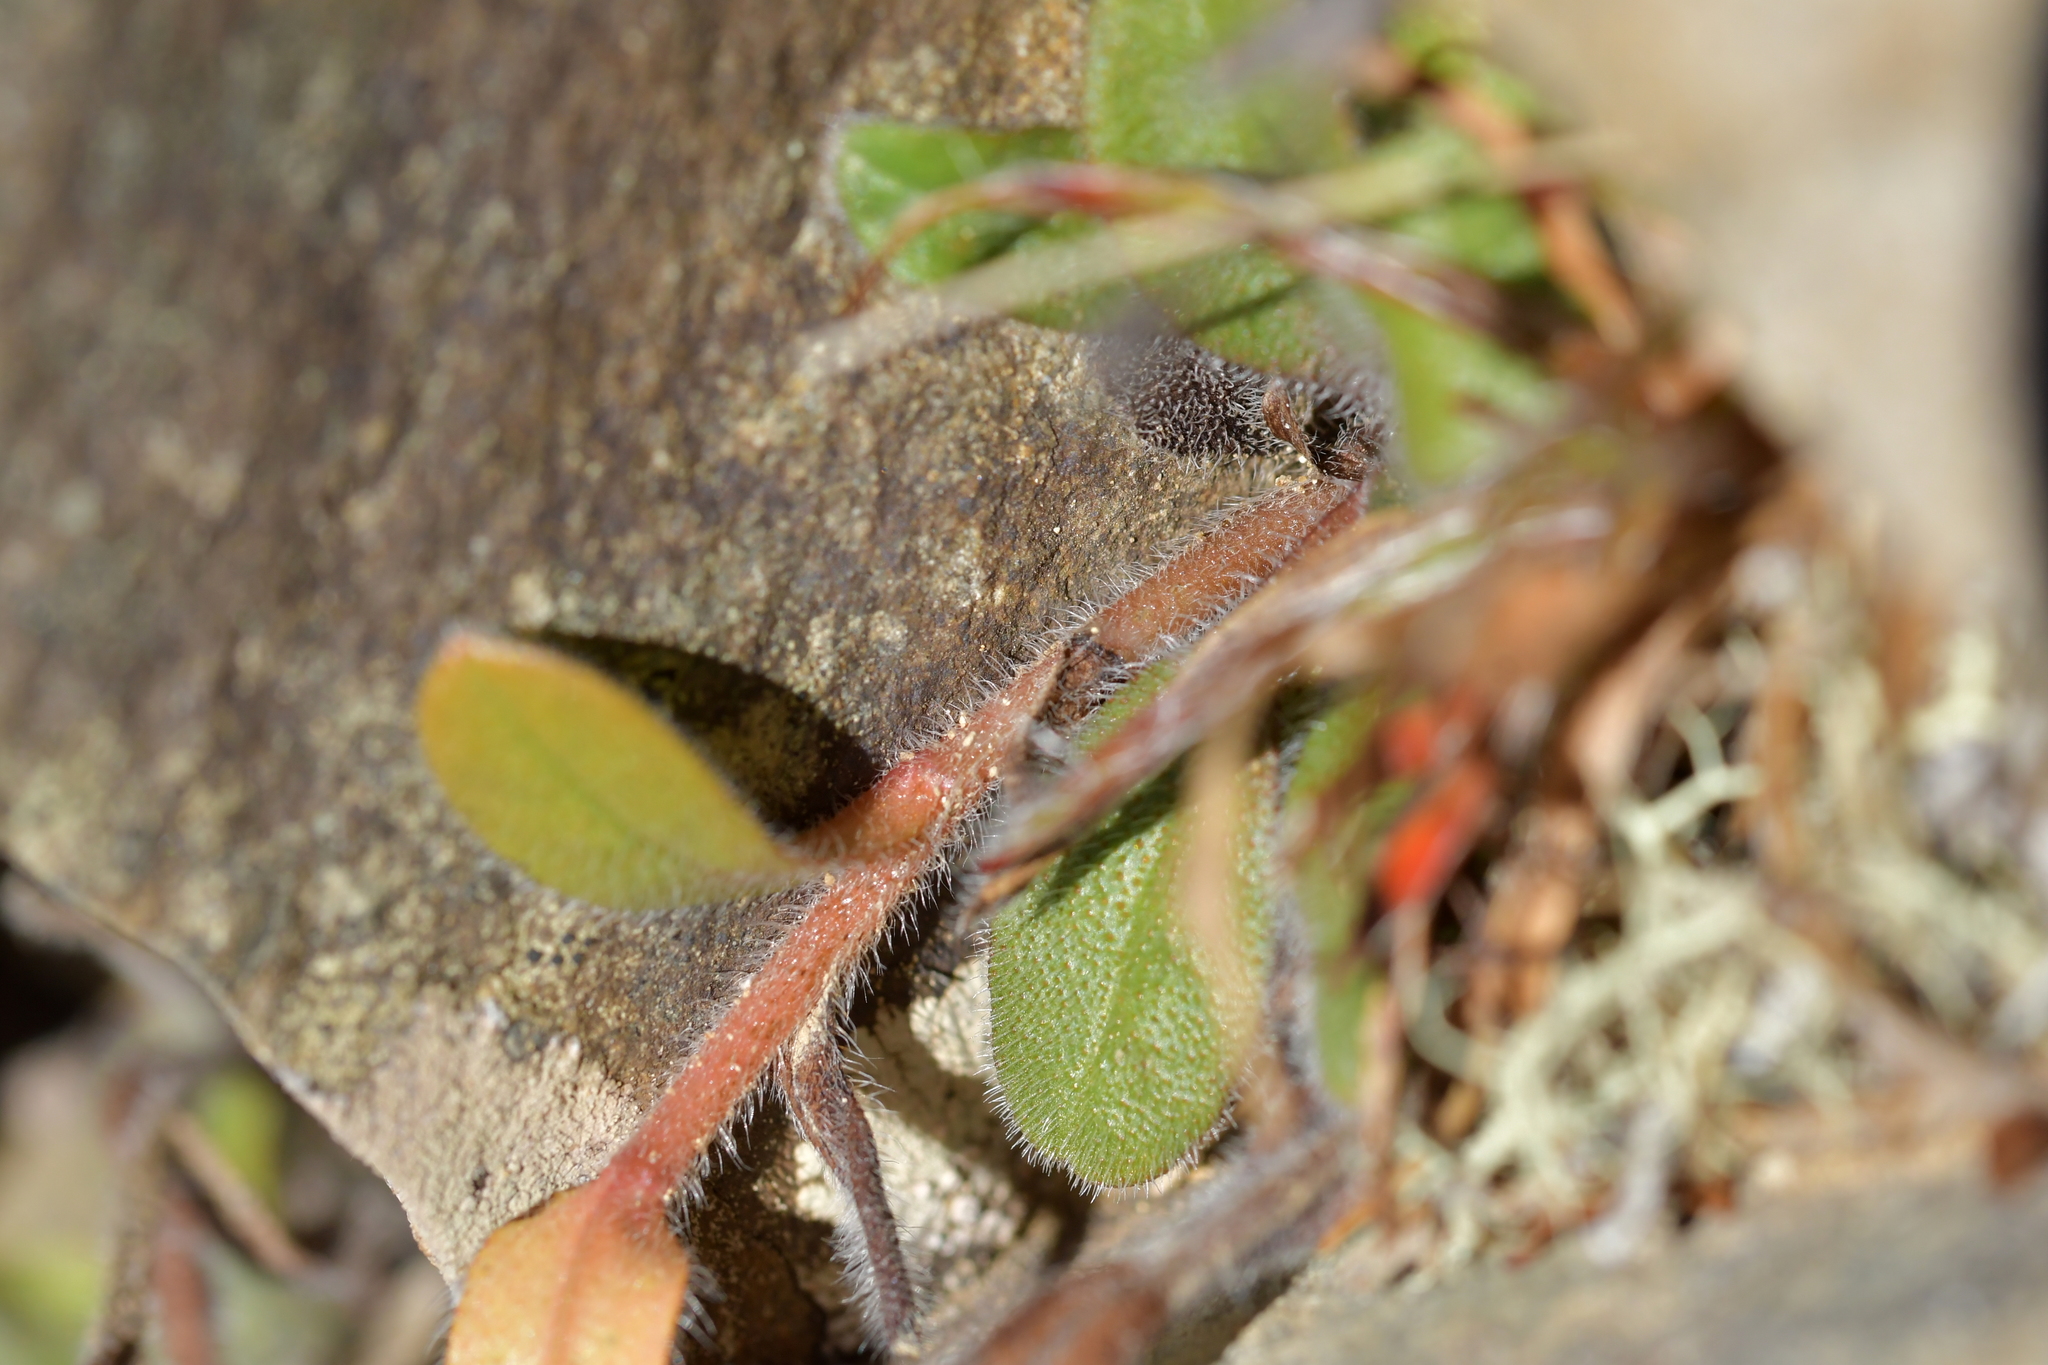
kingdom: Plantae
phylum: Tracheophyta
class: Magnoliopsida
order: Boraginales
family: Boraginaceae
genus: Myosotis
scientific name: Myosotis australis
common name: Australian forget-me-not
